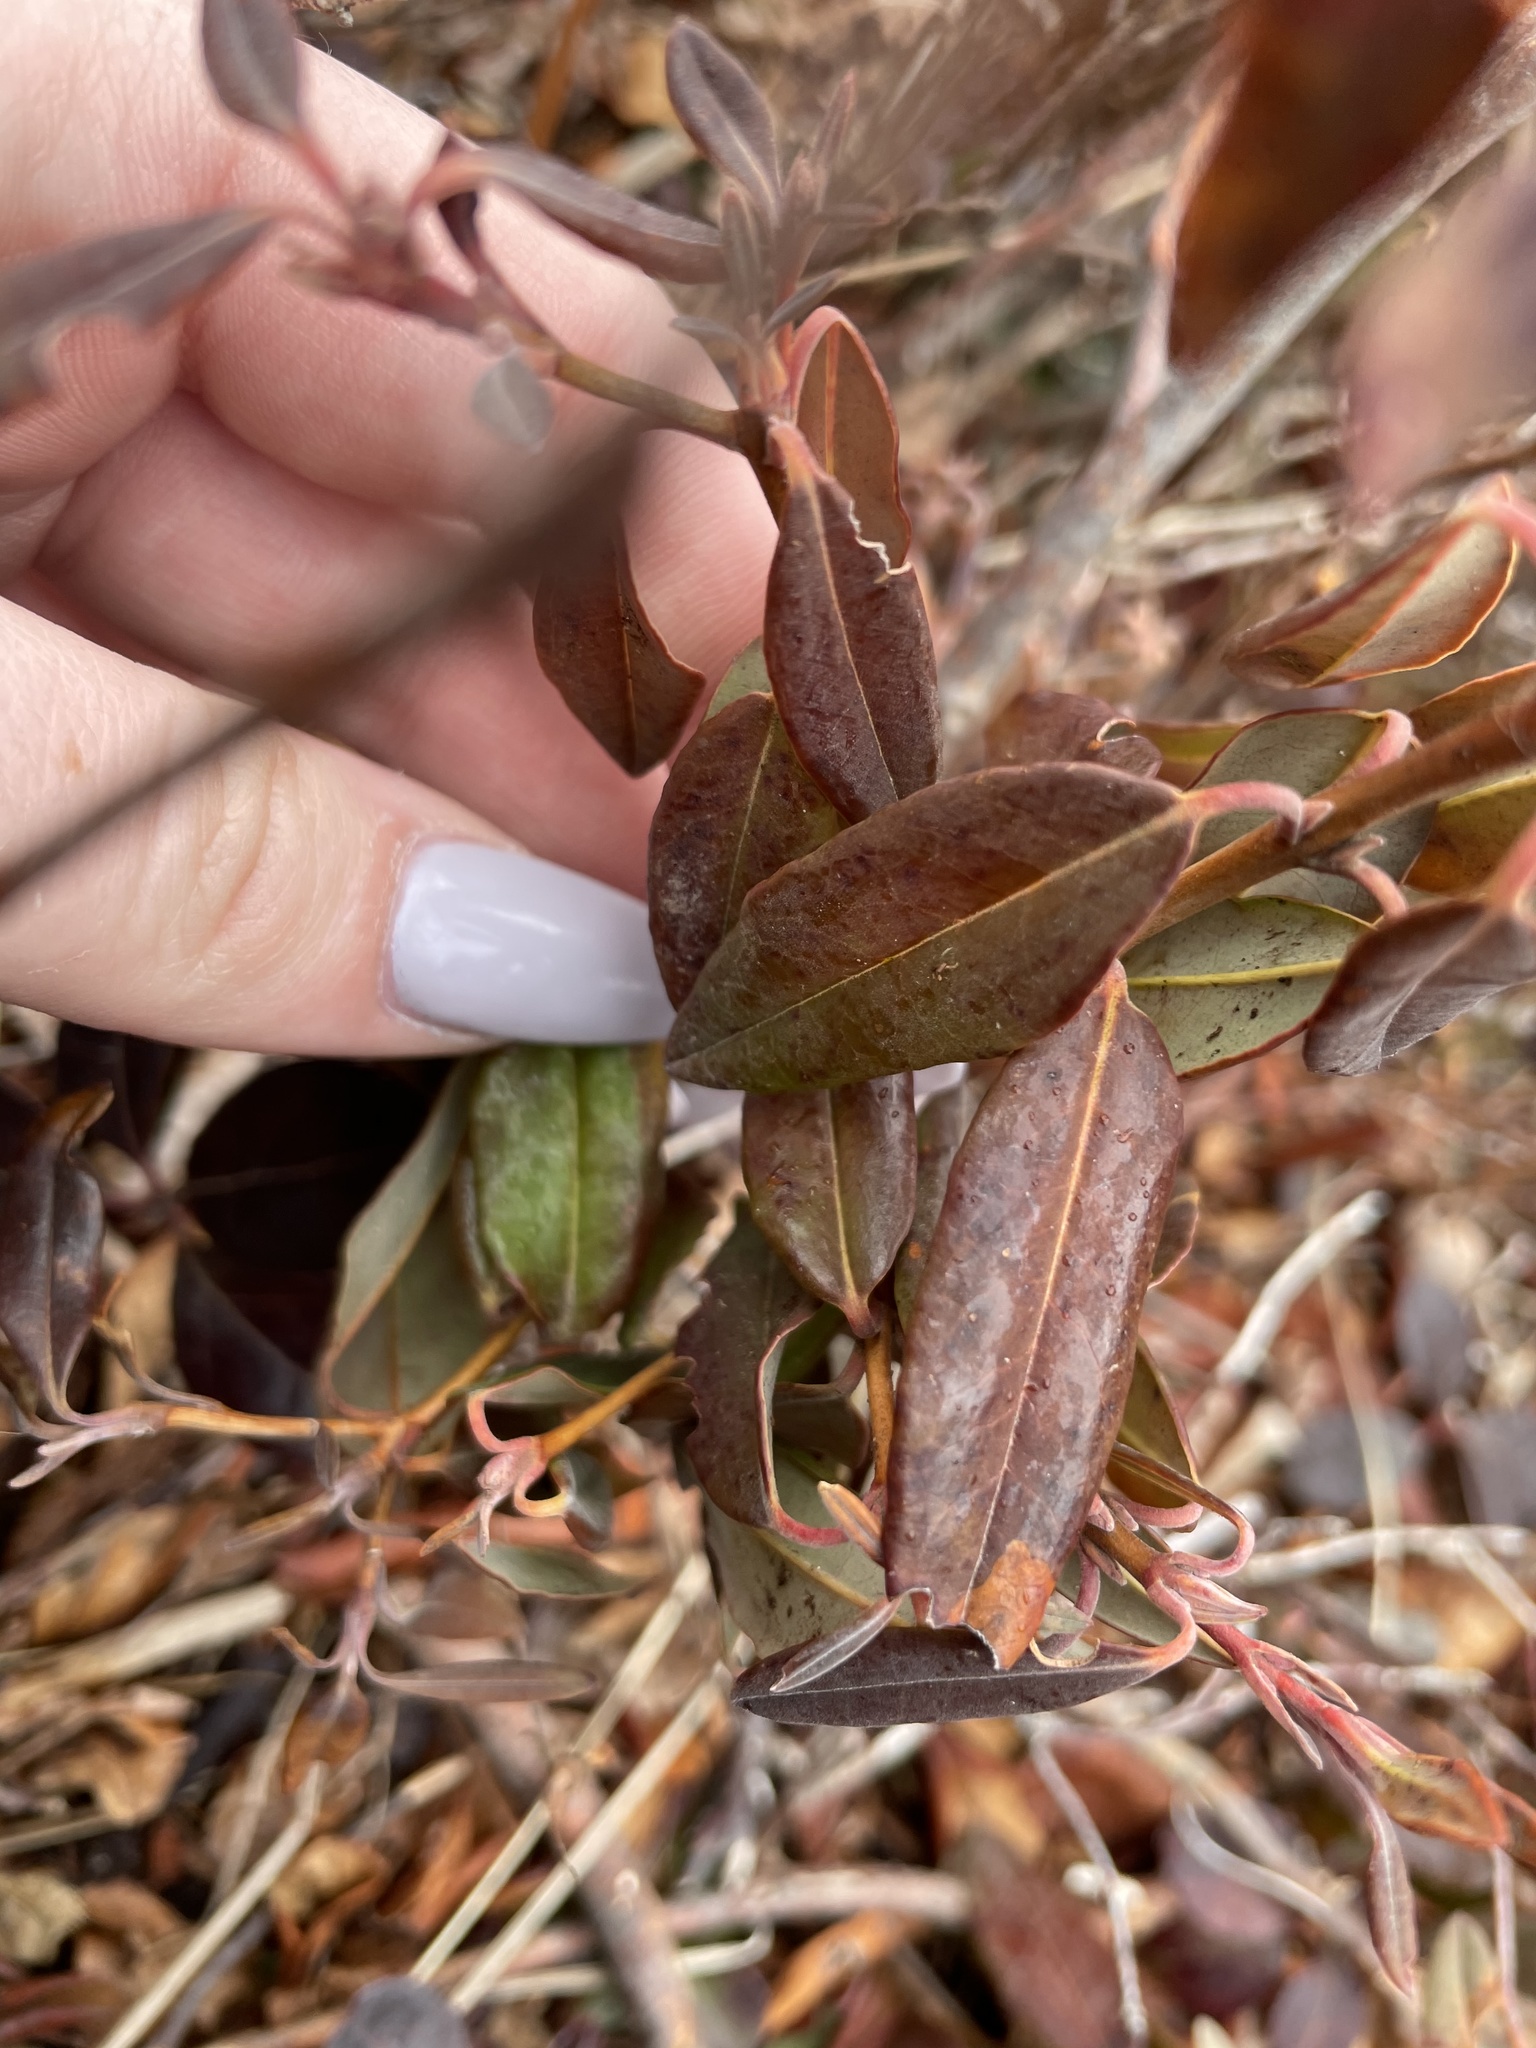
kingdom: Plantae
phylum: Tracheophyta
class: Magnoliopsida
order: Ericales
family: Ericaceae
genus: Kalmia
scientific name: Kalmia angustifolia
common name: Sheep-laurel
